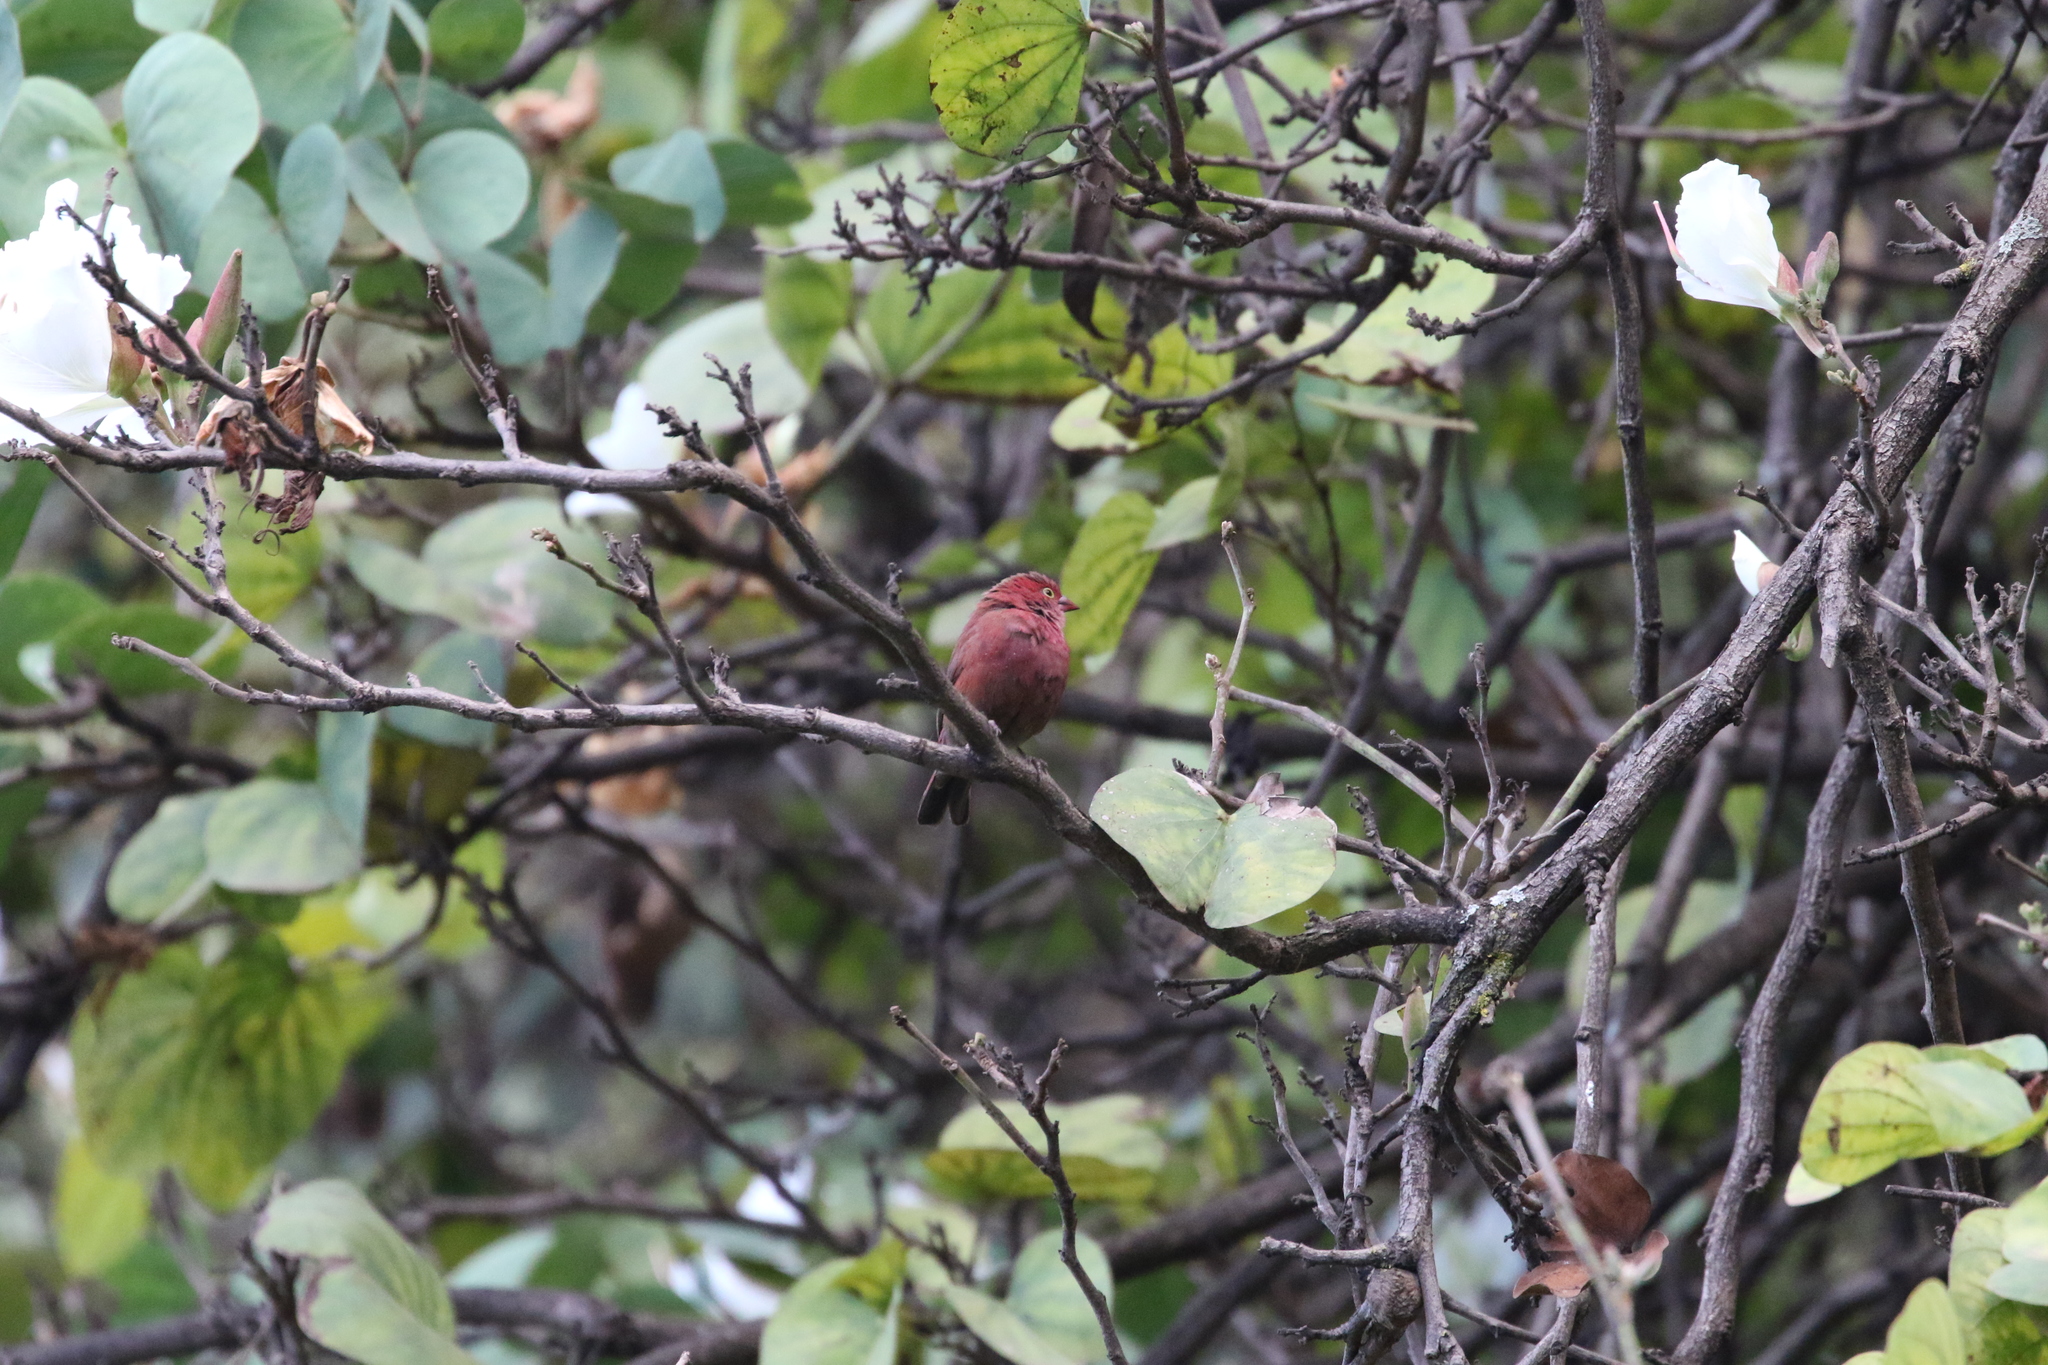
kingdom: Animalia
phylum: Chordata
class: Aves
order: Passeriformes
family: Estrildidae
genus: Lagonosticta
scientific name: Lagonosticta senegala
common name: Red-billed firefinch
